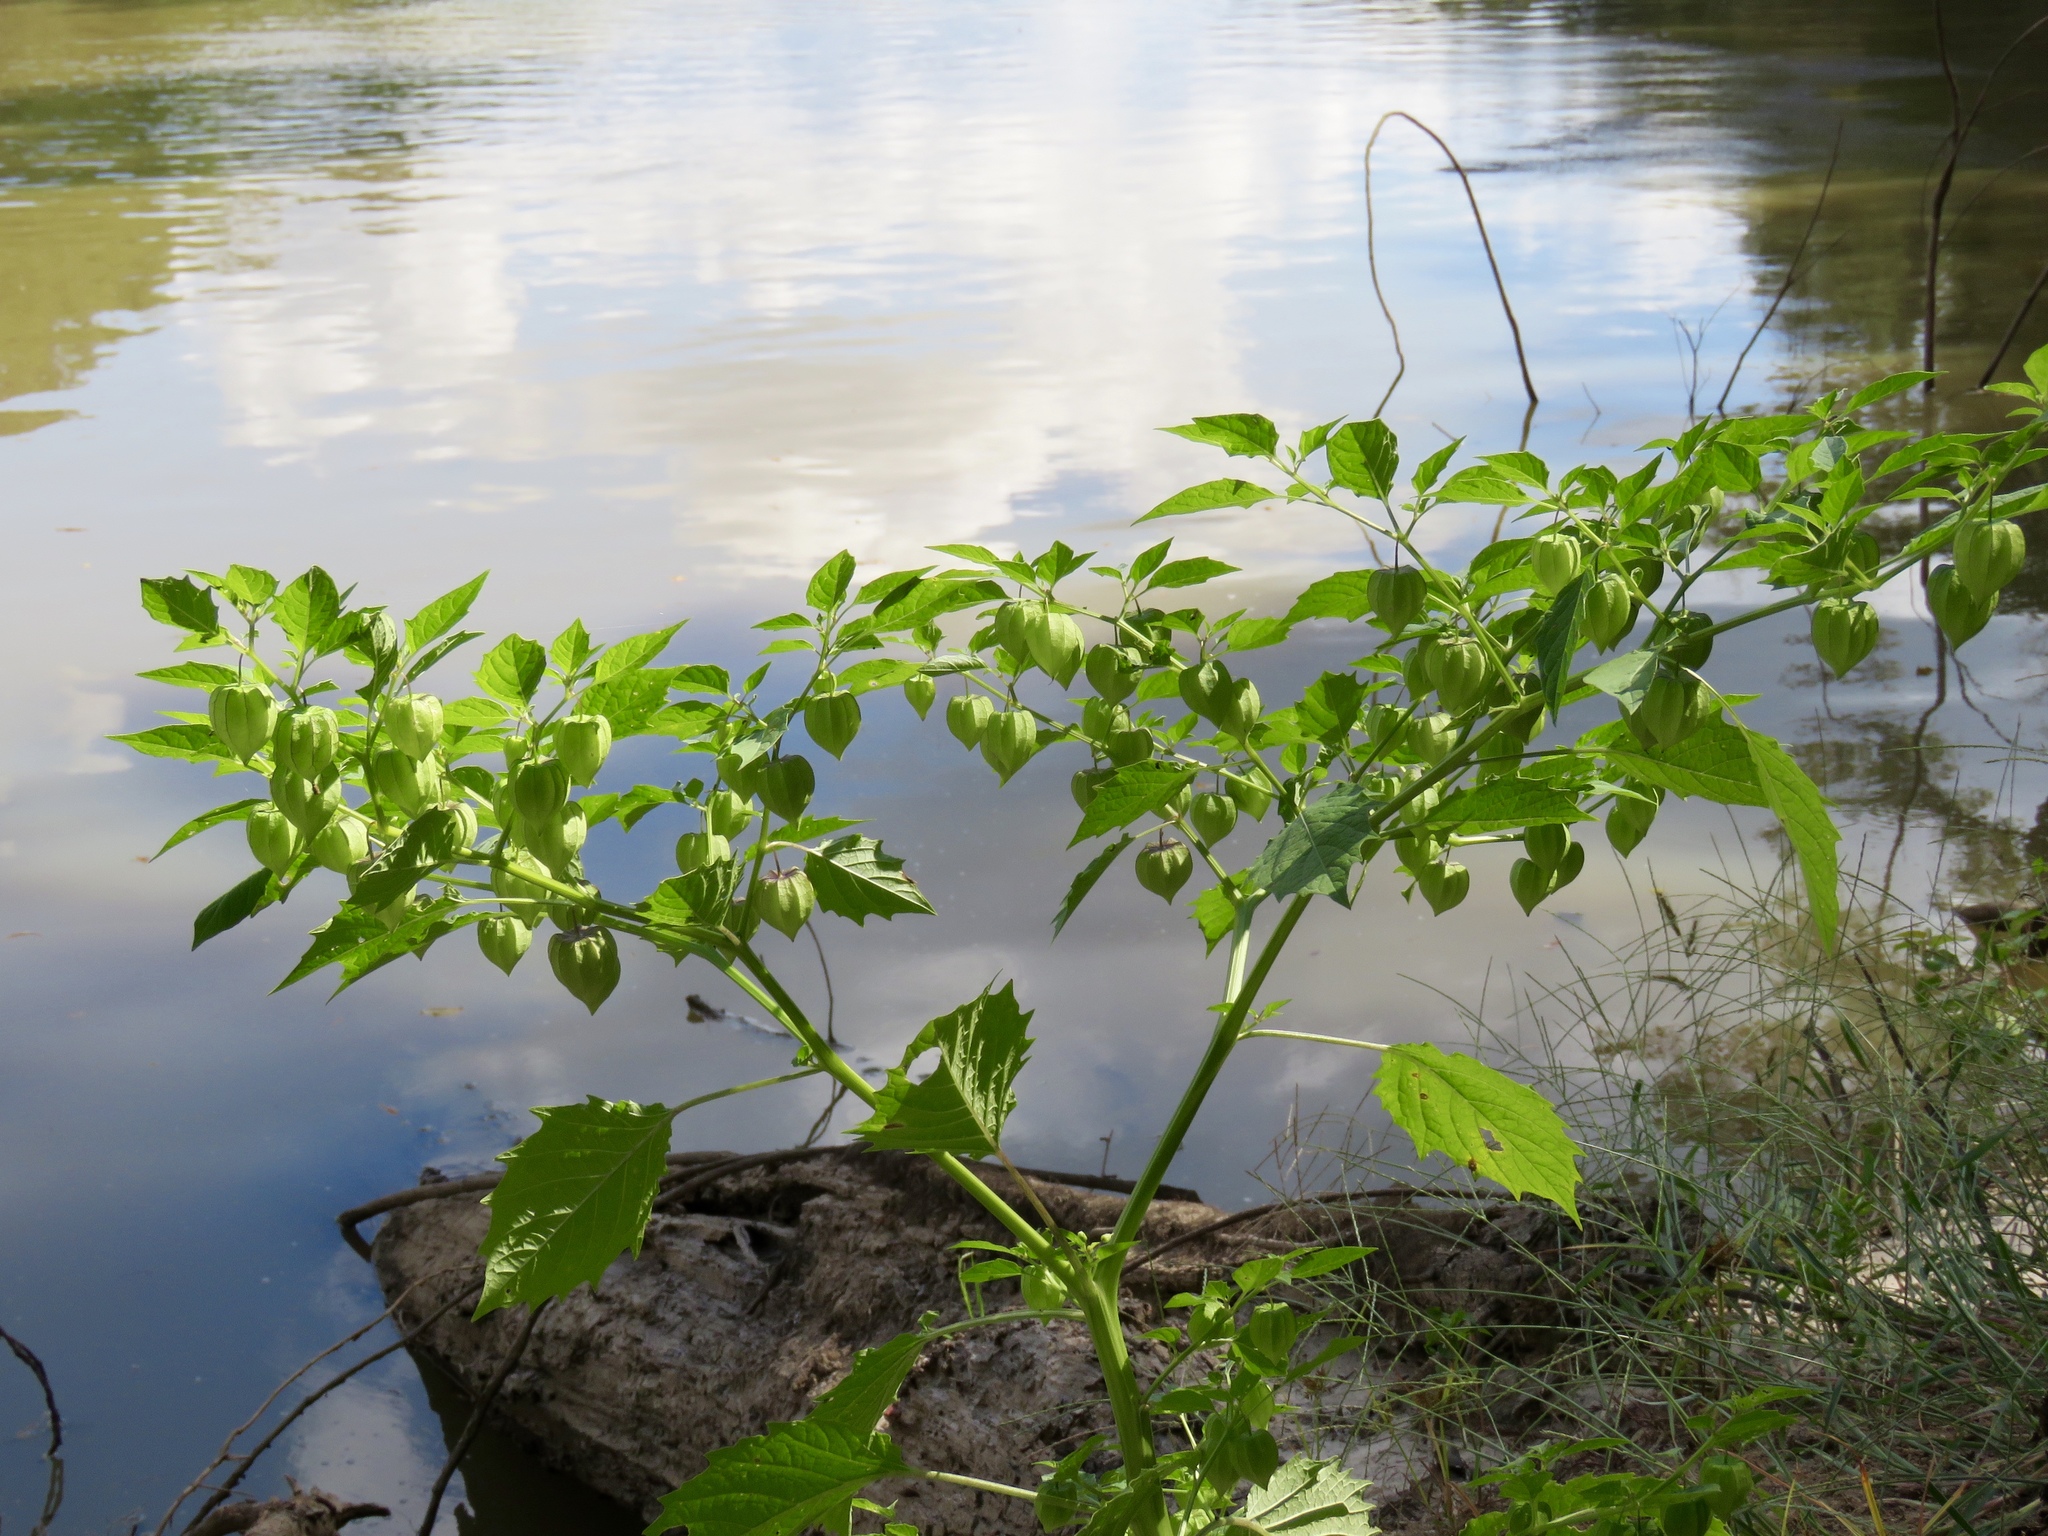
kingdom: Plantae
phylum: Tracheophyta
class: Magnoliopsida
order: Solanales
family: Solanaceae
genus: Physalis
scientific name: Physalis angulata
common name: Angular winter-cherry
